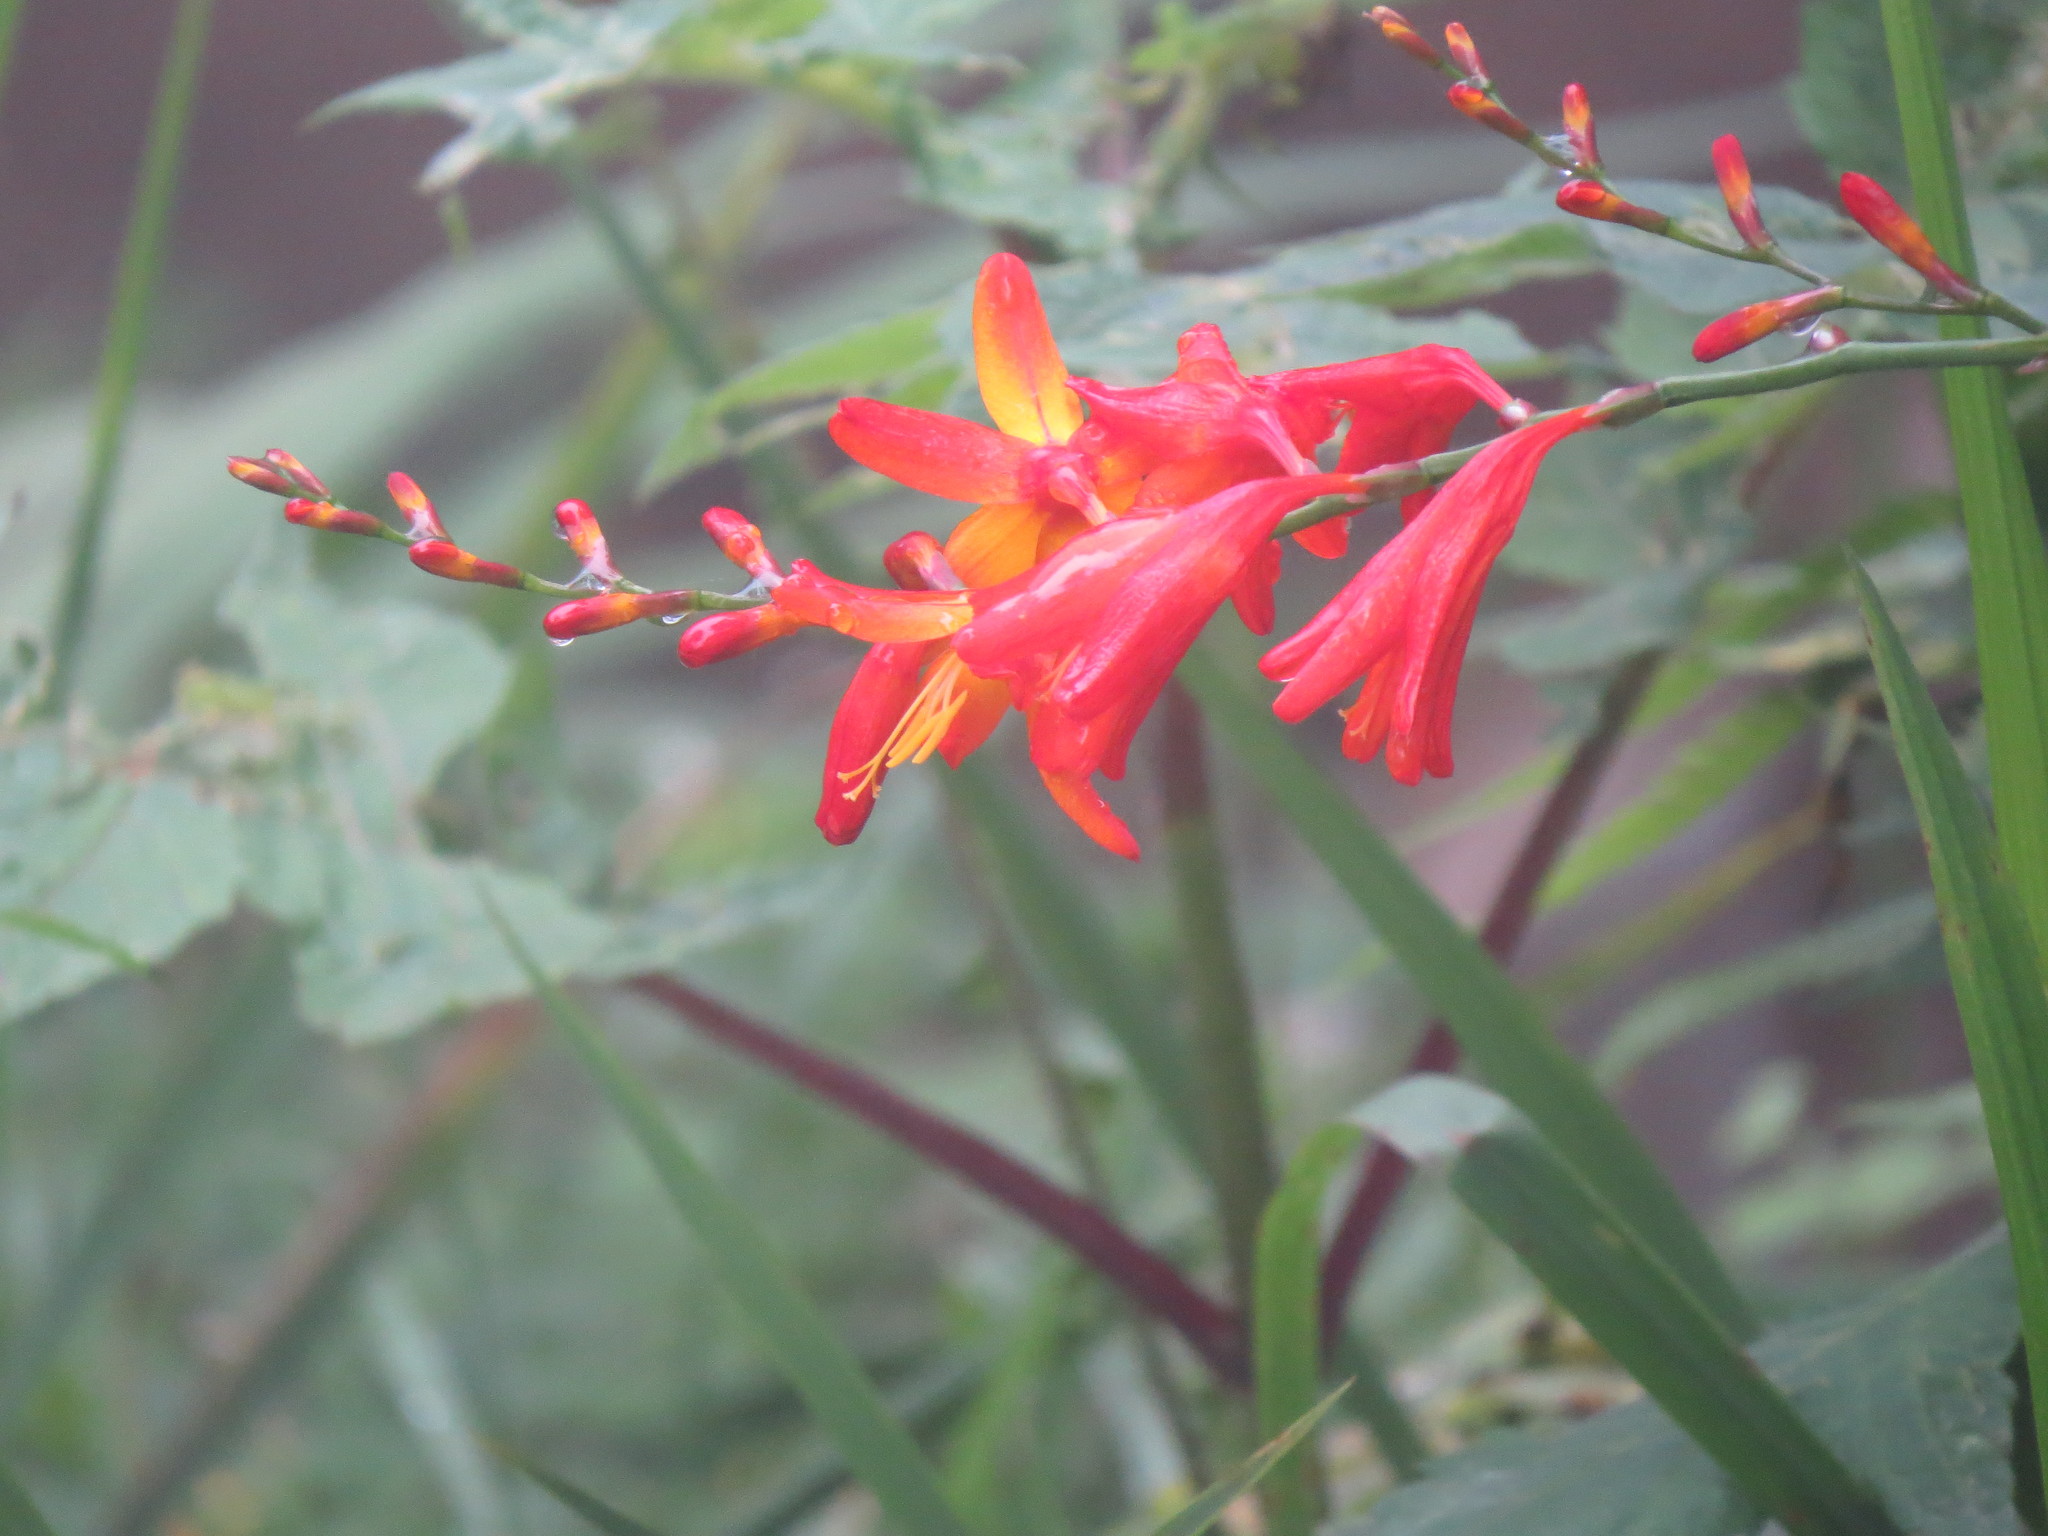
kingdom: Plantae
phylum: Tracheophyta
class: Liliopsida
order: Asparagales
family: Iridaceae
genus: Crocosmia
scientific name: Crocosmia crocosmiiflora
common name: Montbretia
